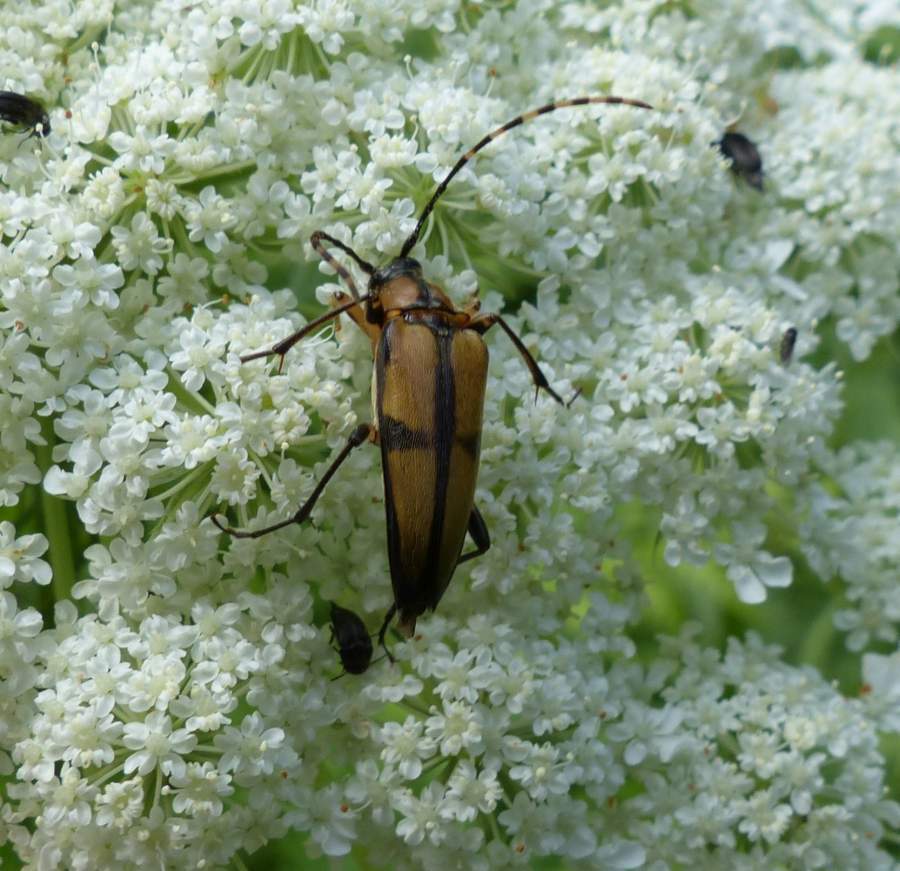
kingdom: Animalia
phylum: Arthropoda
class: Insecta
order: Coleoptera
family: Cerambycidae
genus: Etorofus
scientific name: Etorofus
